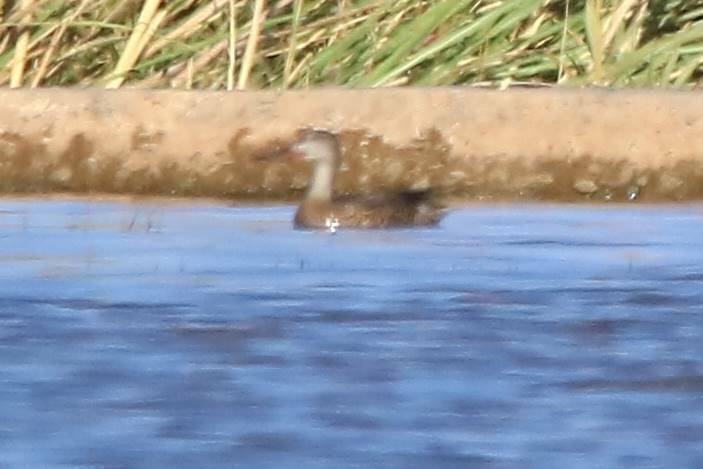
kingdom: Animalia
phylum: Chordata
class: Aves
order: Anseriformes
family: Anatidae
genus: Spatula
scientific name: Spatula clypeata
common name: Northern shoveler
